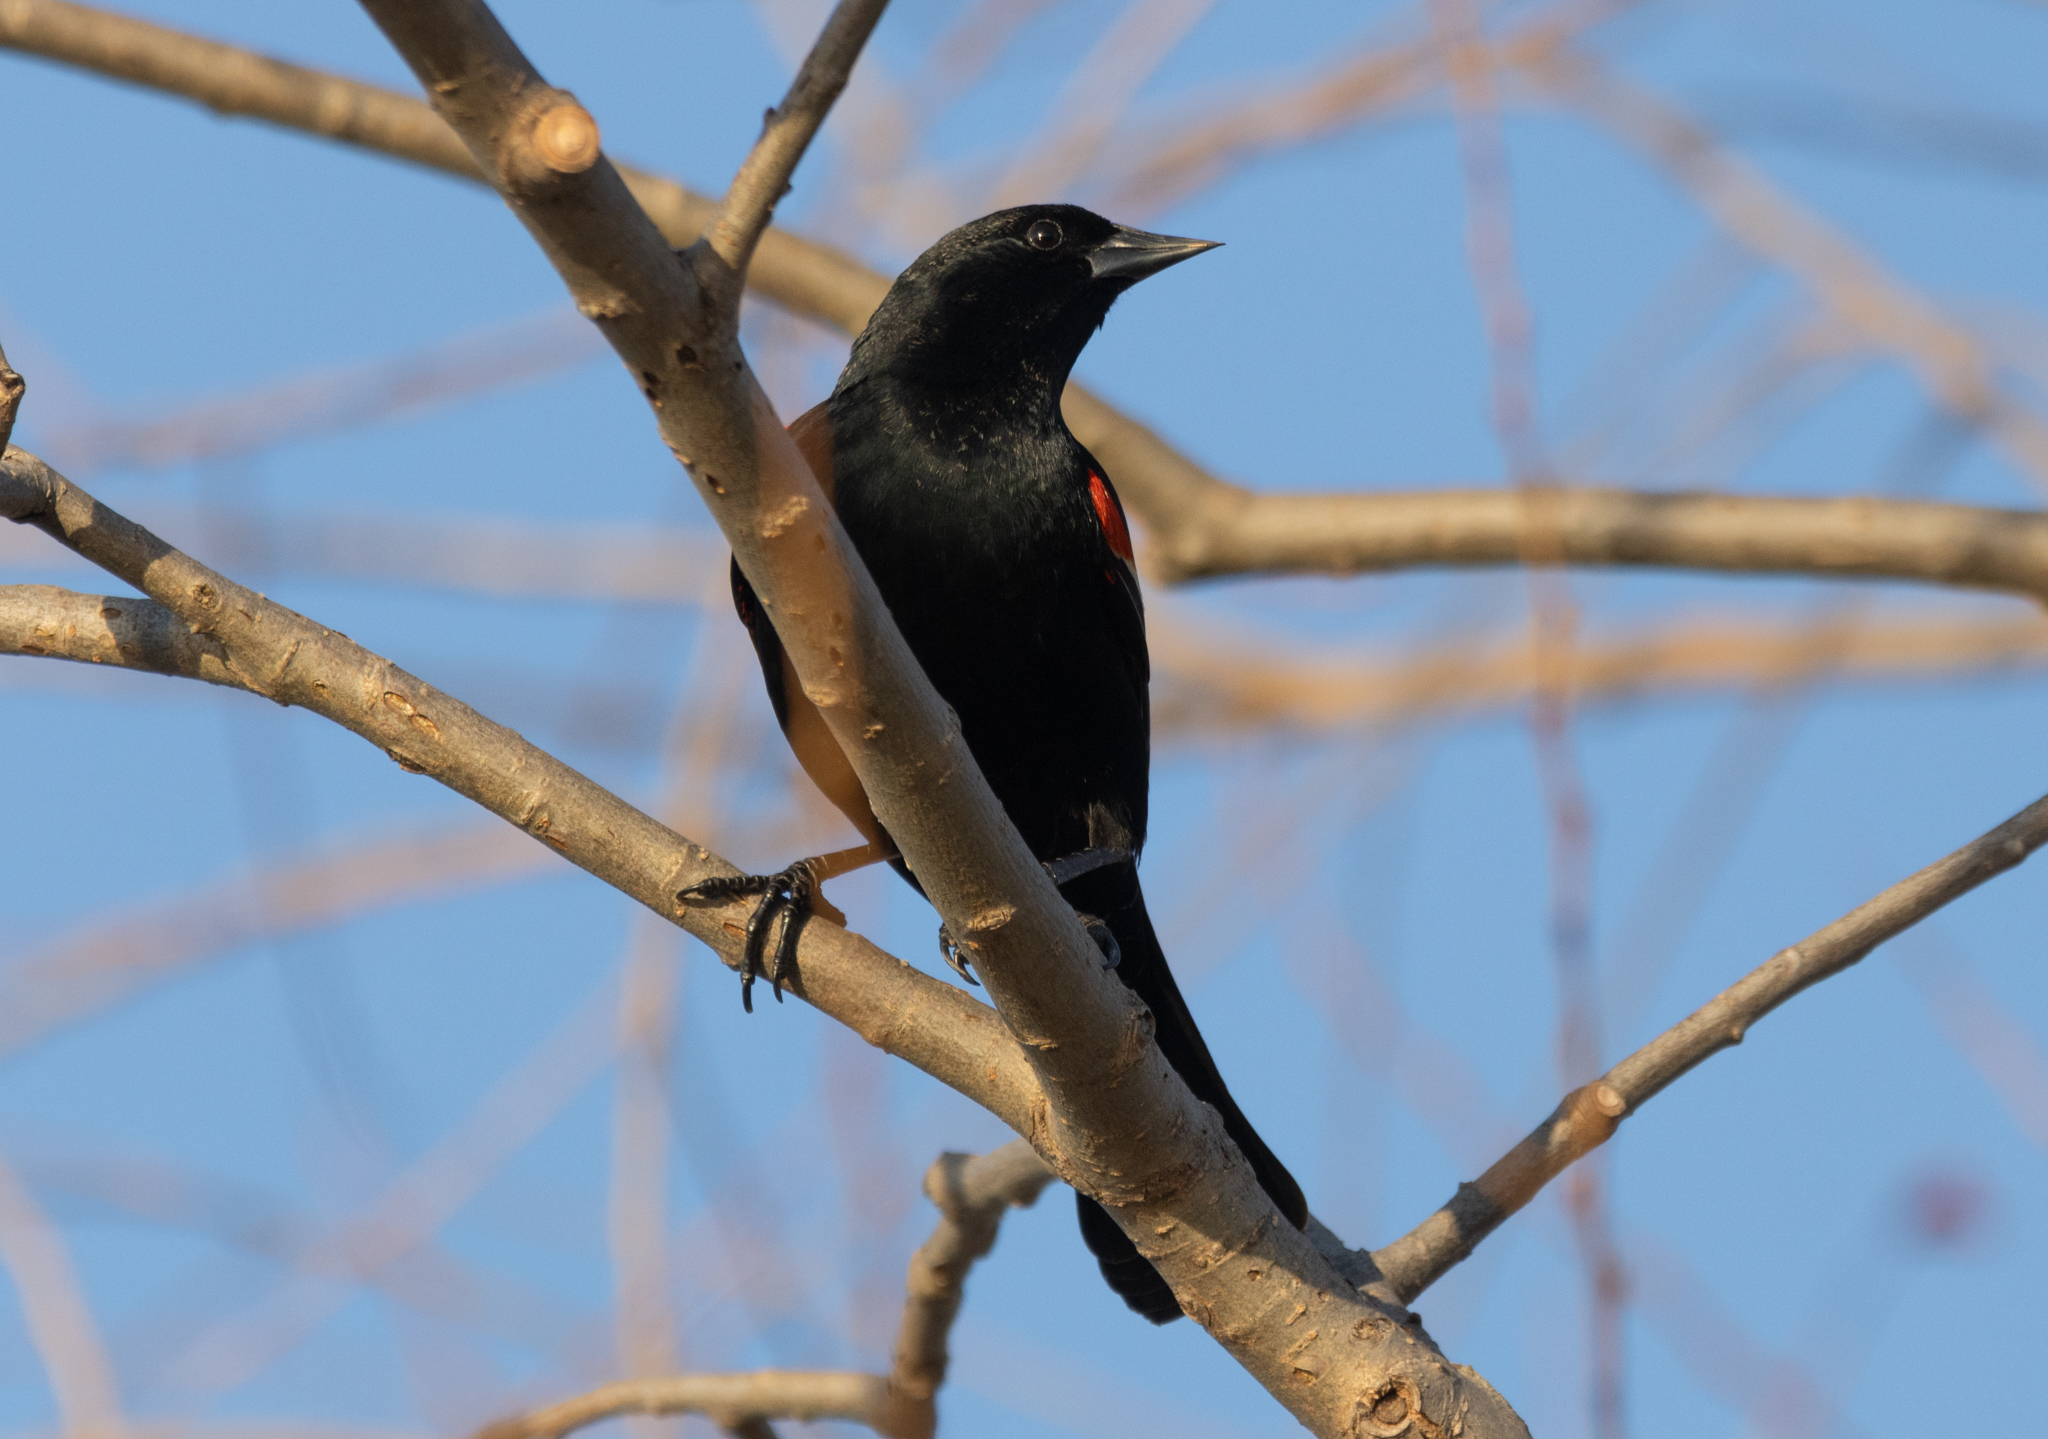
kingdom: Animalia
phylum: Chordata
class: Aves
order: Passeriformes
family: Icteridae
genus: Agelaius
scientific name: Agelaius phoeniceus
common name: Red-winged blackbird
